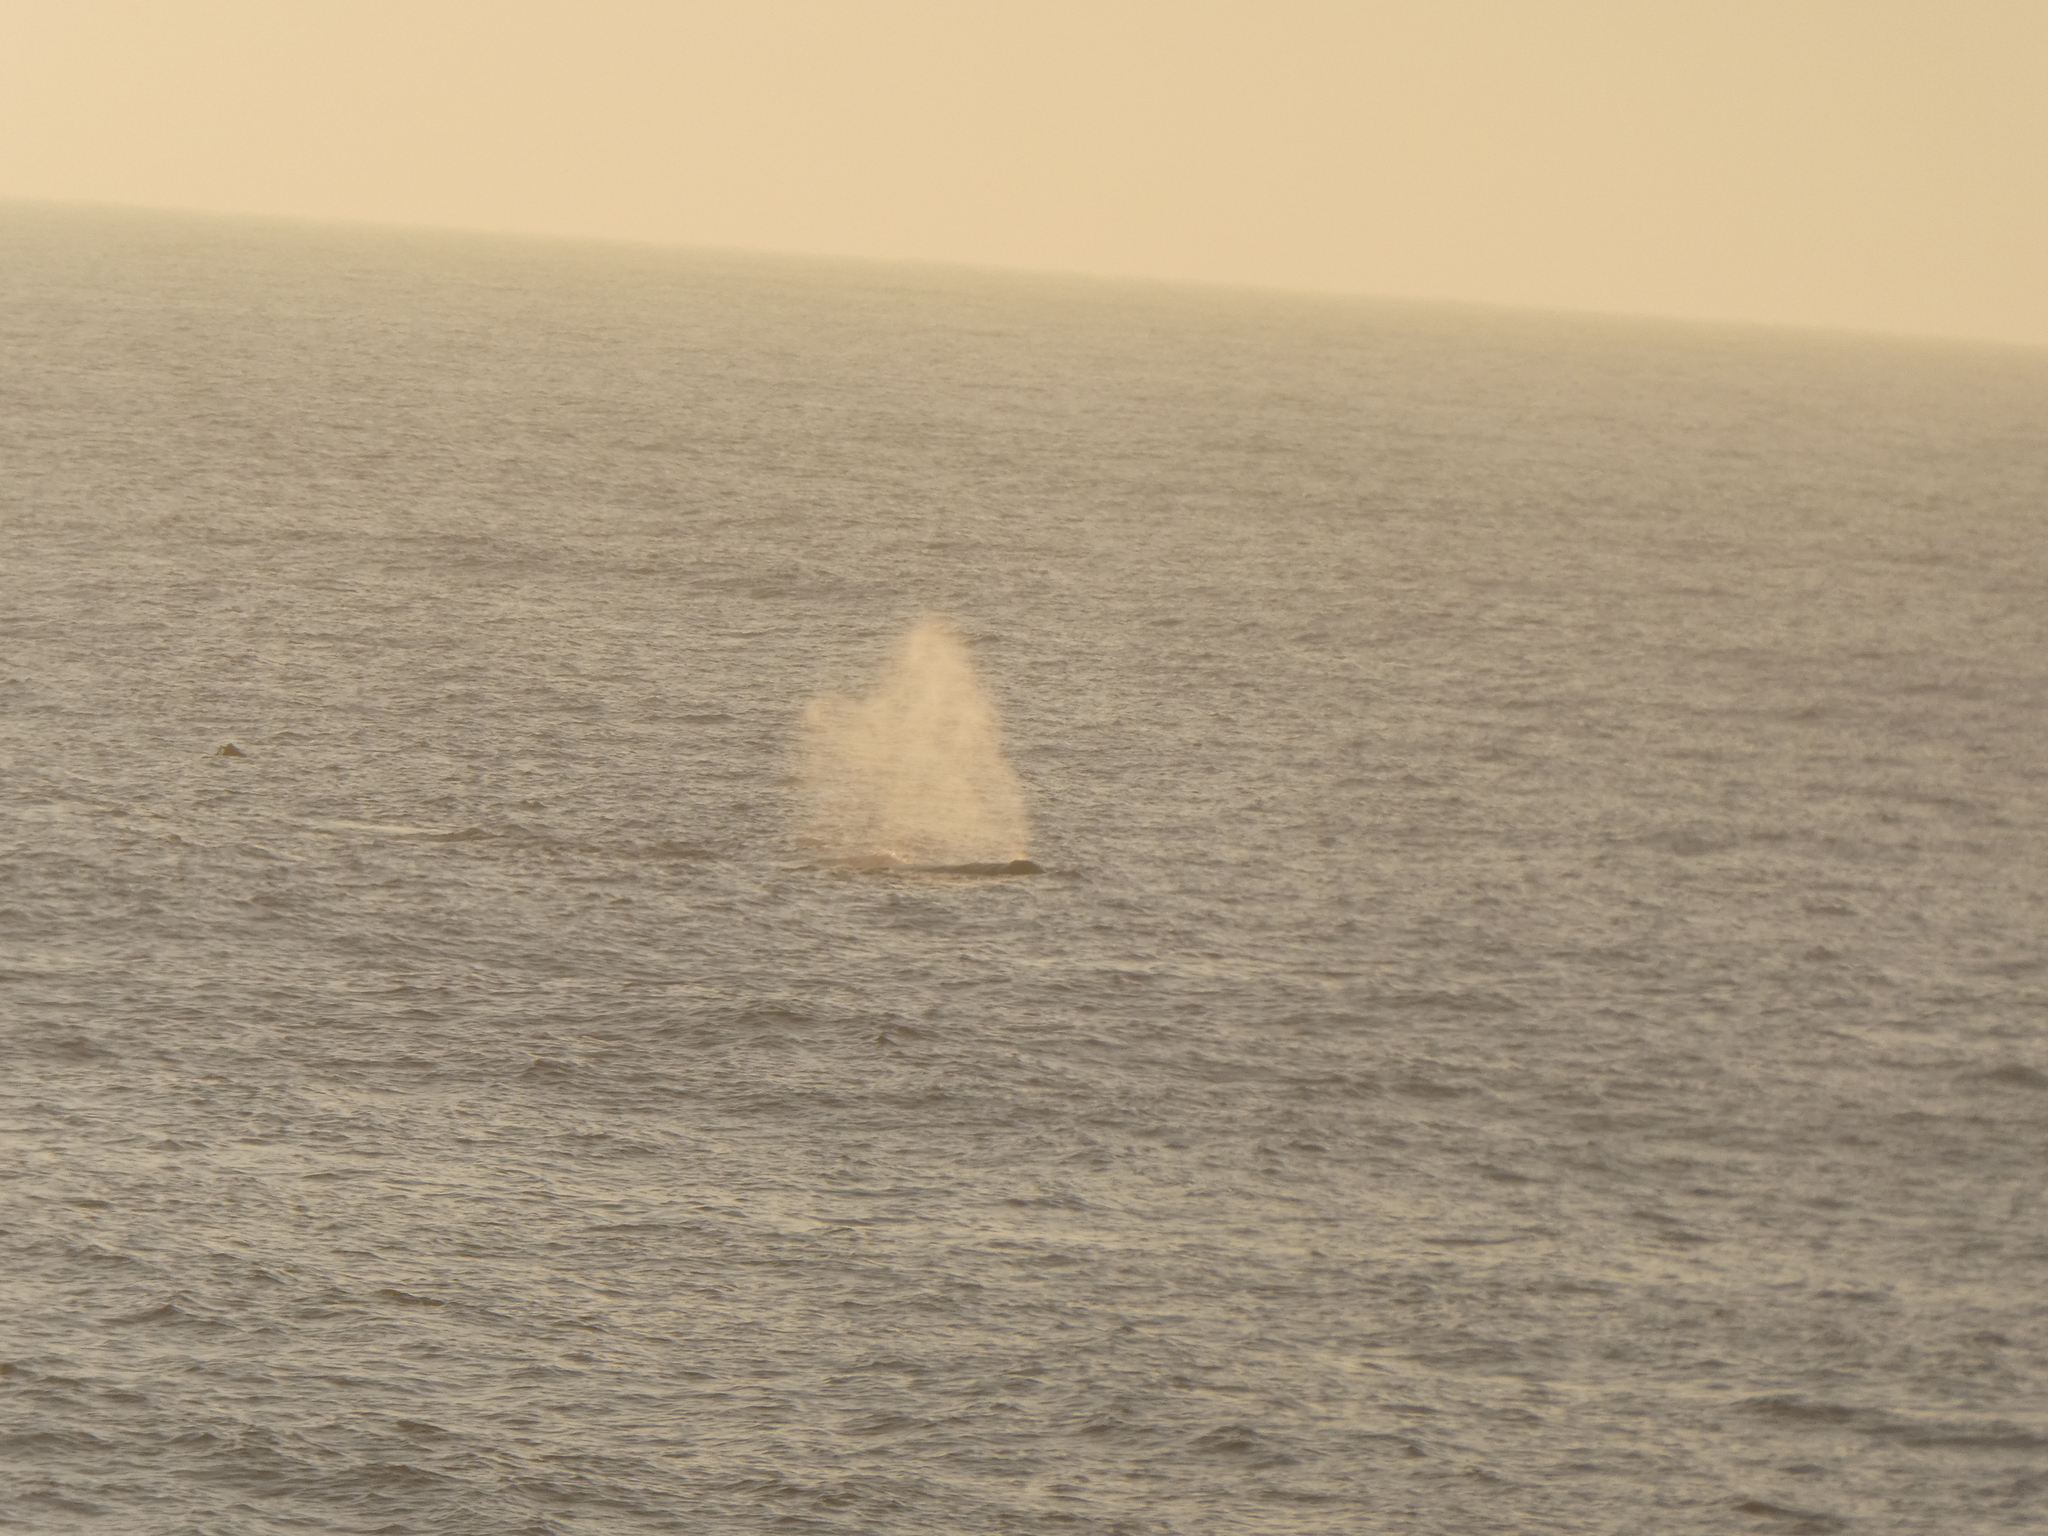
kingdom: Animalia
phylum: Chordata
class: Mammalia
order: Cetacea
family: Eschrichtiidae
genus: Eschrichtius
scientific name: Eschrichtius robustus
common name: Gray whale
